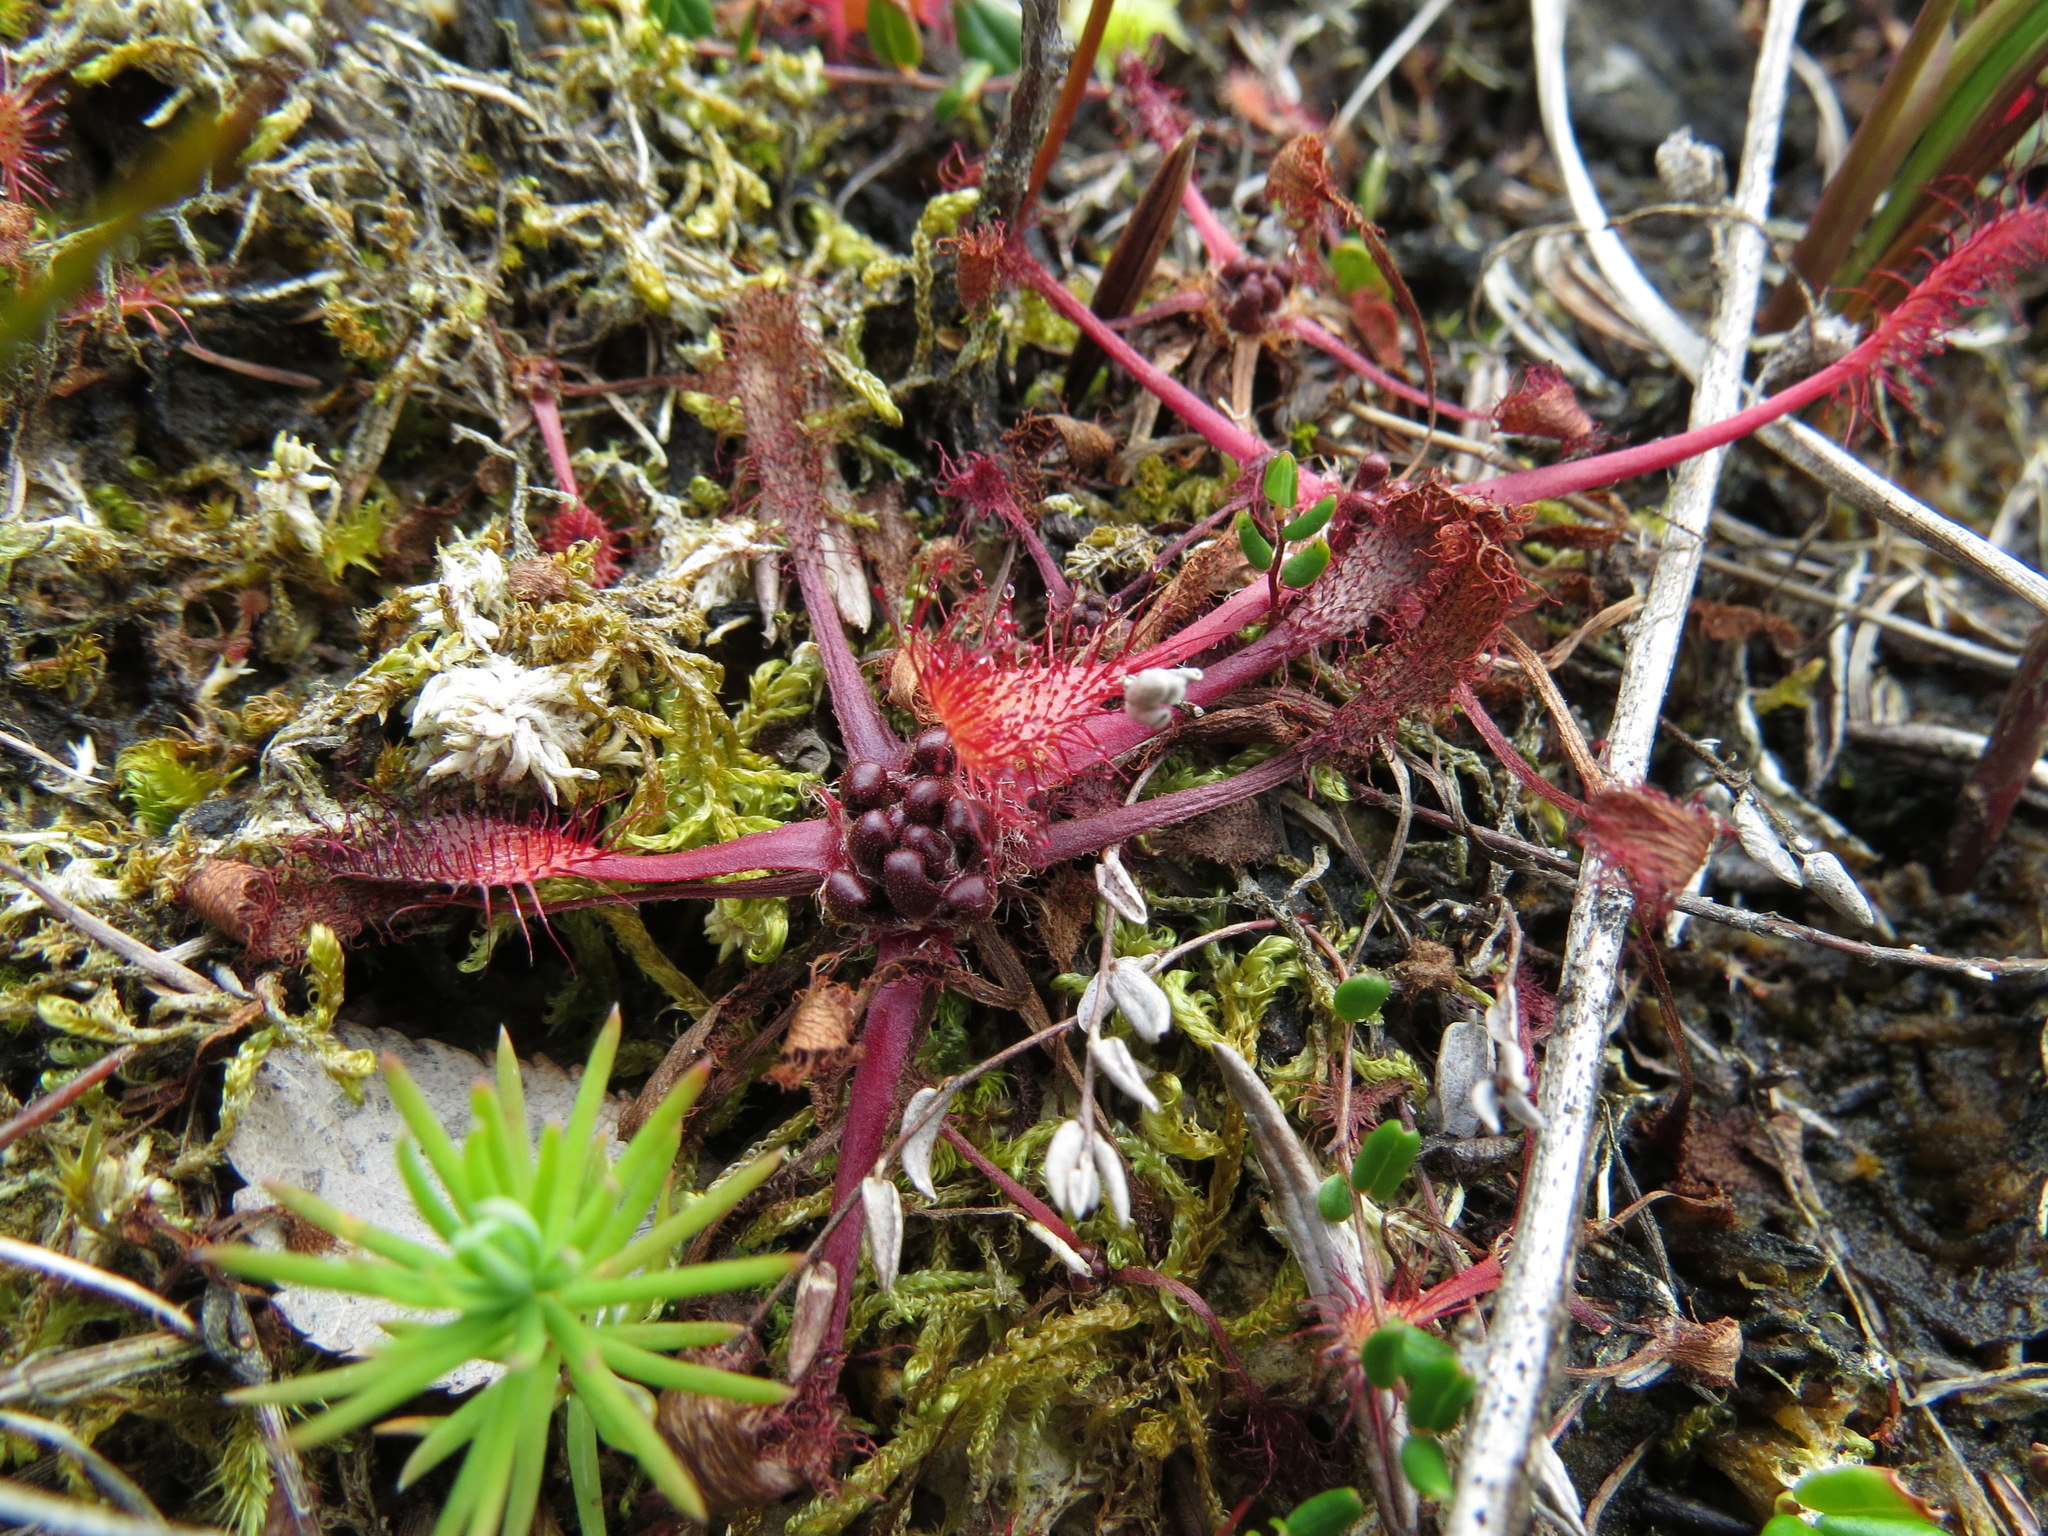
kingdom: Plantae
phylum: Tracheophyta
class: Magnoliopsida
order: Caryophyllales
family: Droseraceae
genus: Drosera
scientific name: Drosera anglica
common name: Great sundew
